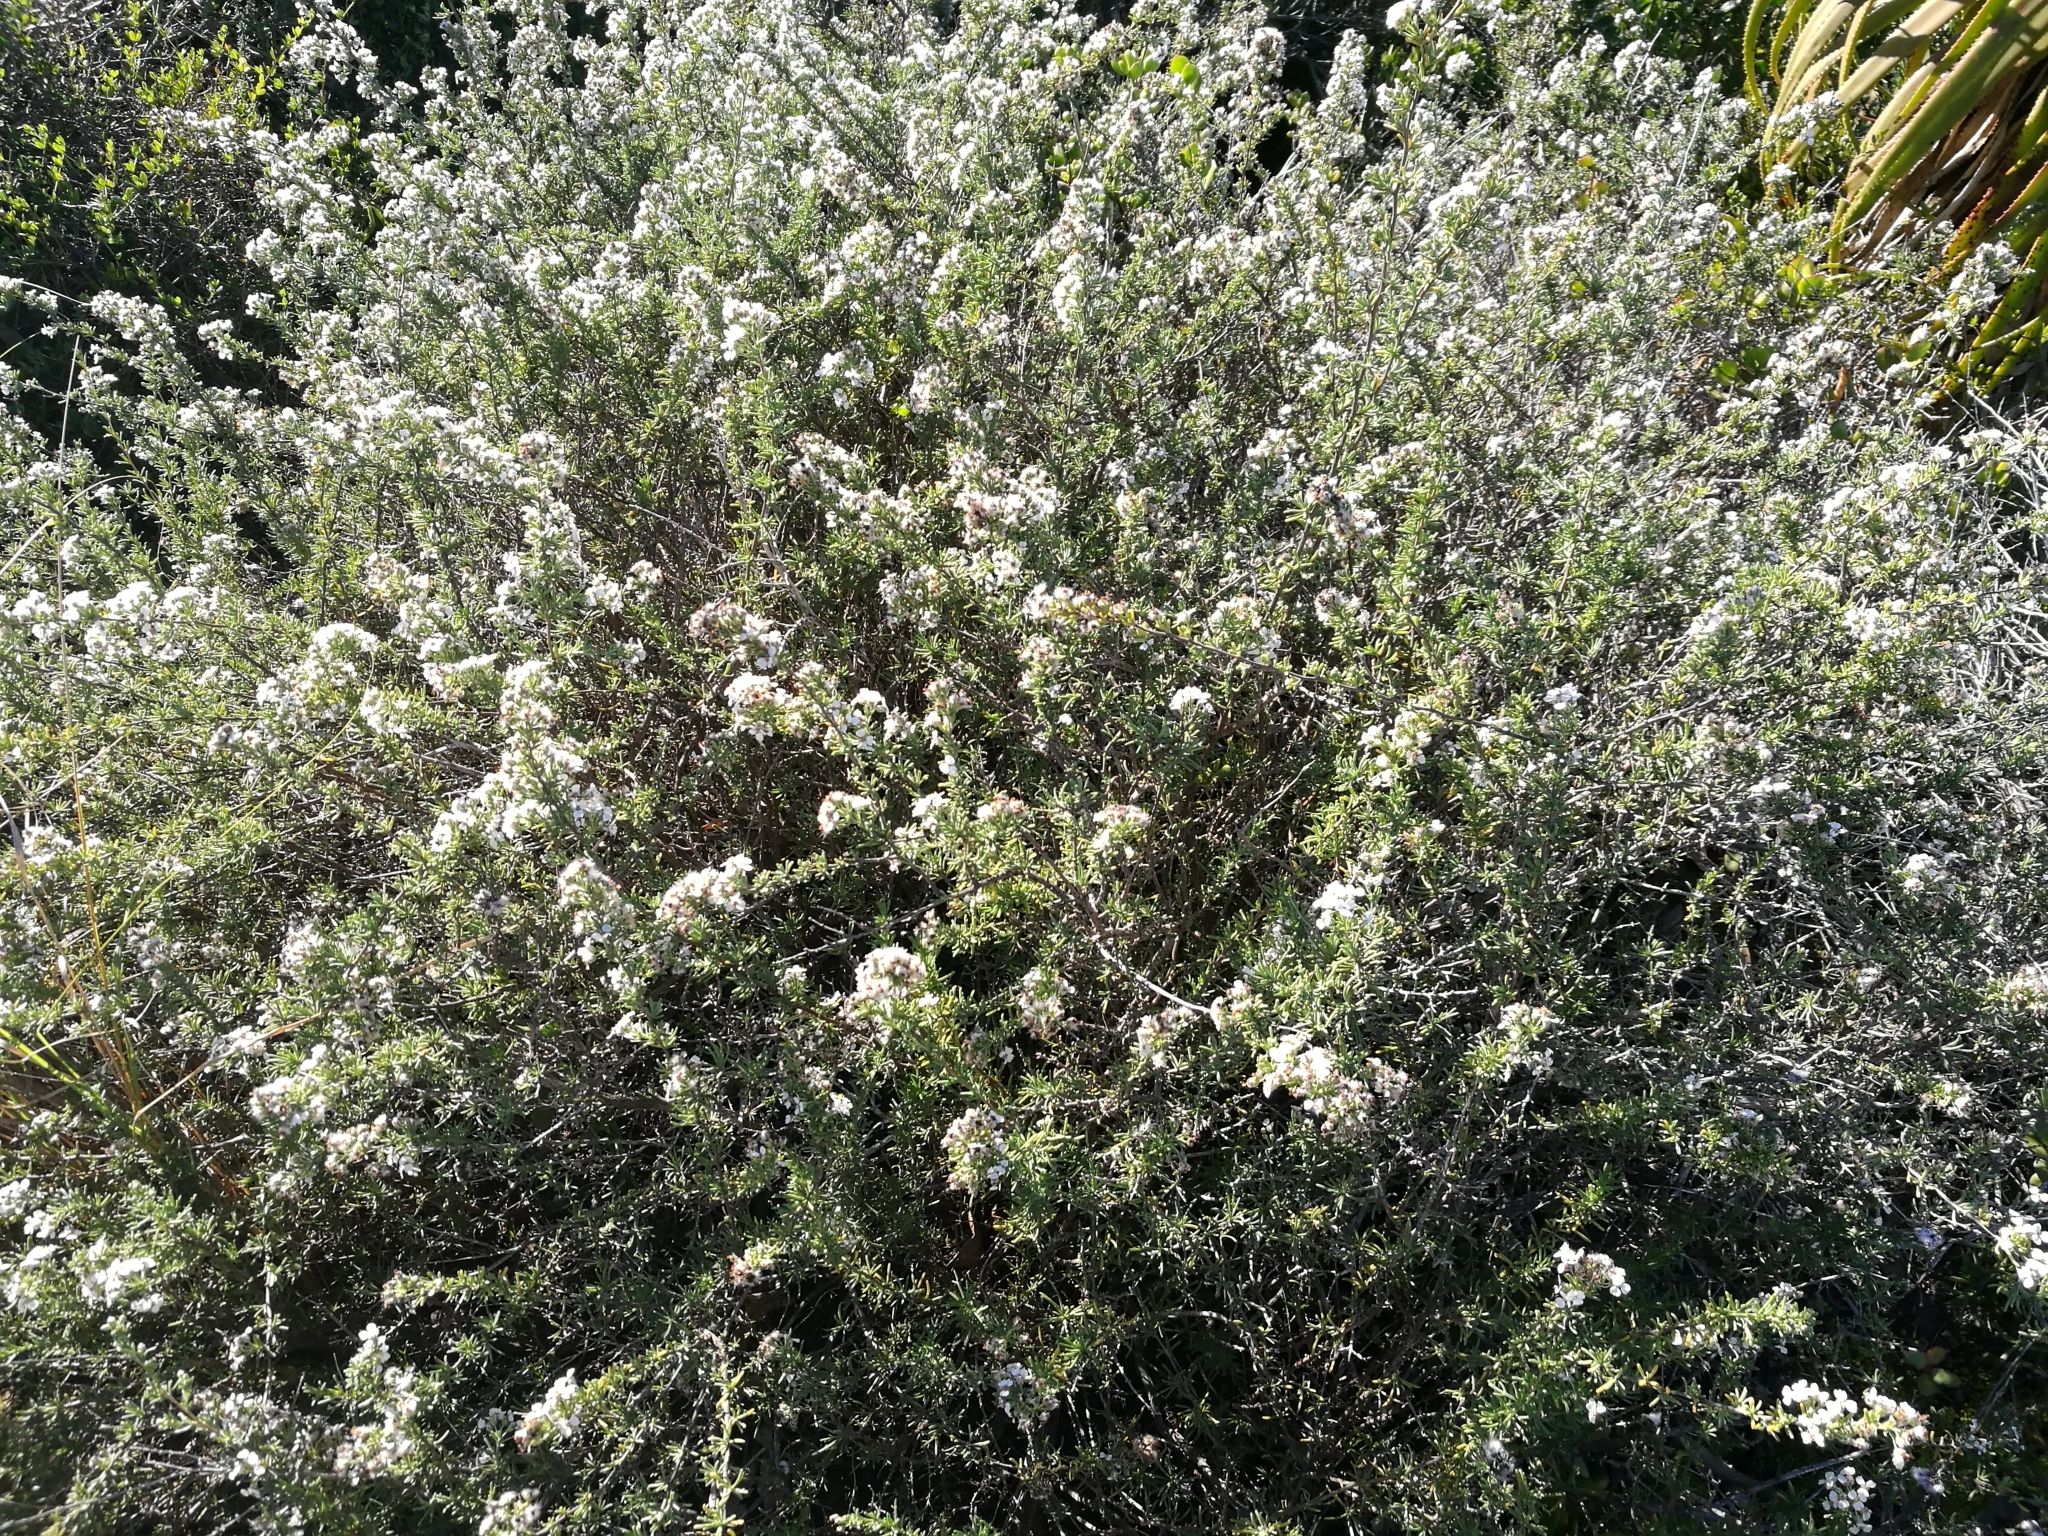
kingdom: Plantae
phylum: Tracheophyta
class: Magnoliopsida
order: Asterales
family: Asteraceae
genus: Eriocephalus
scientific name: Eriocephalus africanus
